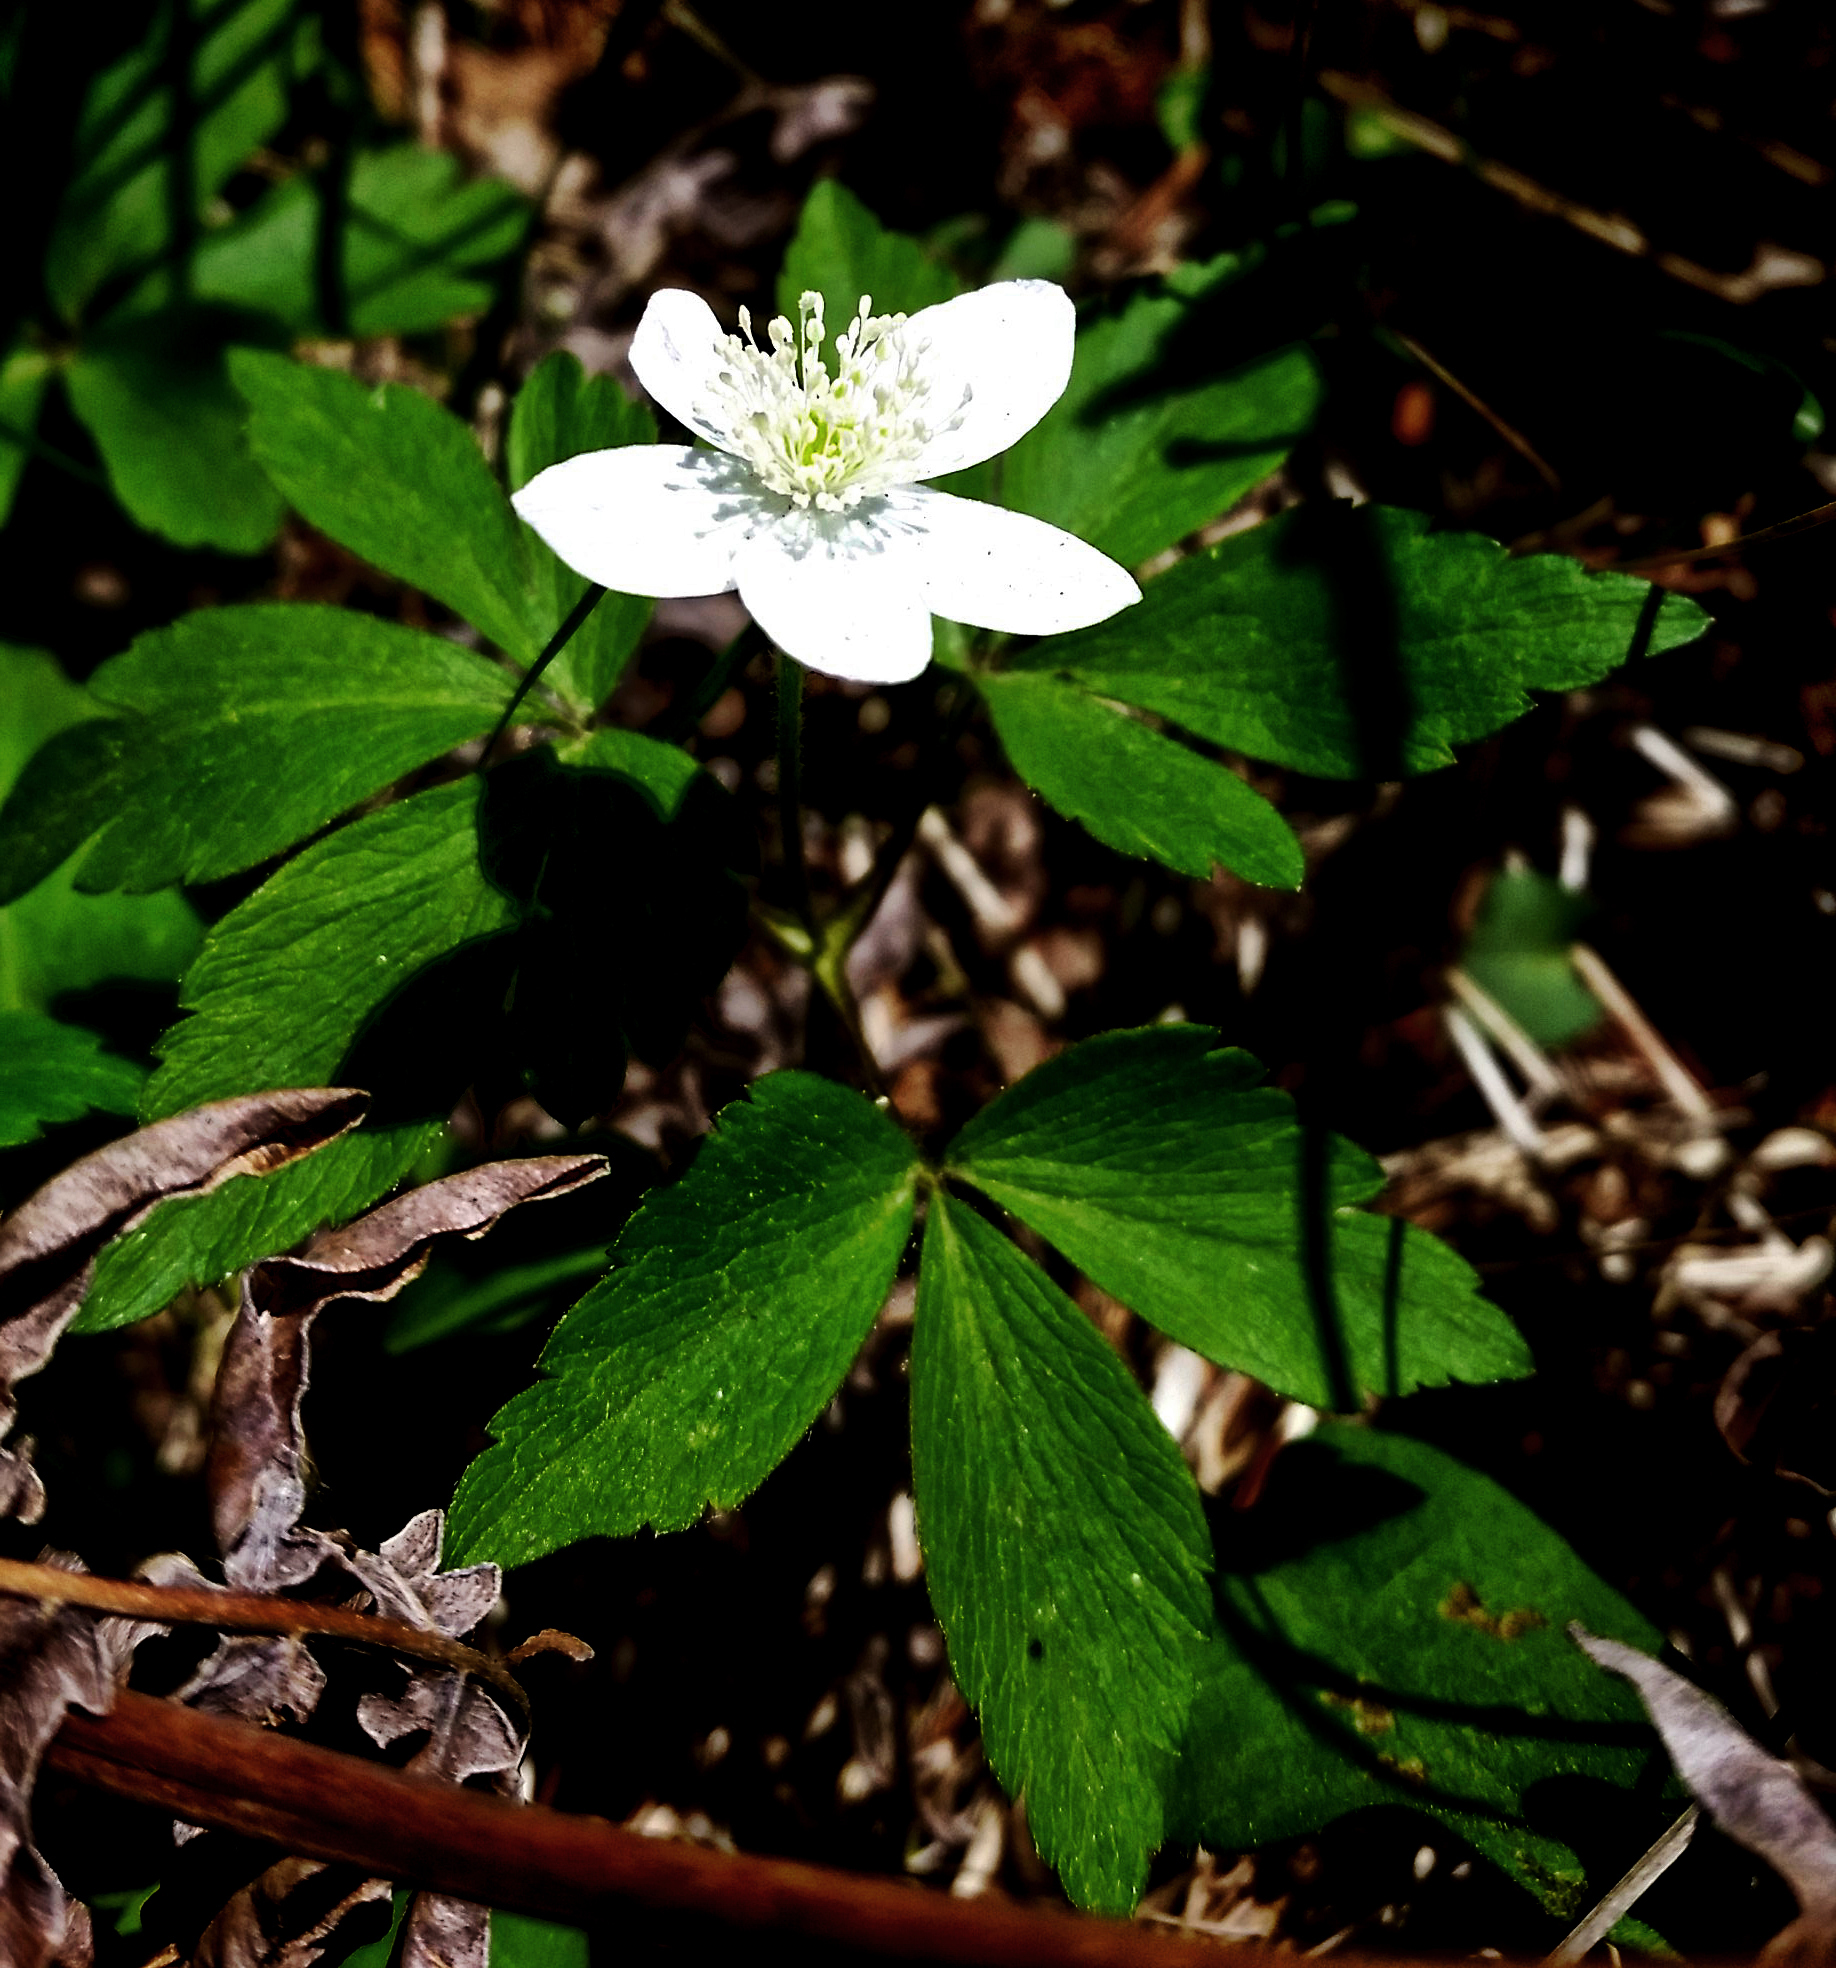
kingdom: Plantae
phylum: Tracheophyta
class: Magnoliopsida
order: Ranunculales
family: Ranunculaceae
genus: Anemone
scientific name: Anemone quinquefolia
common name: Wood anemone
